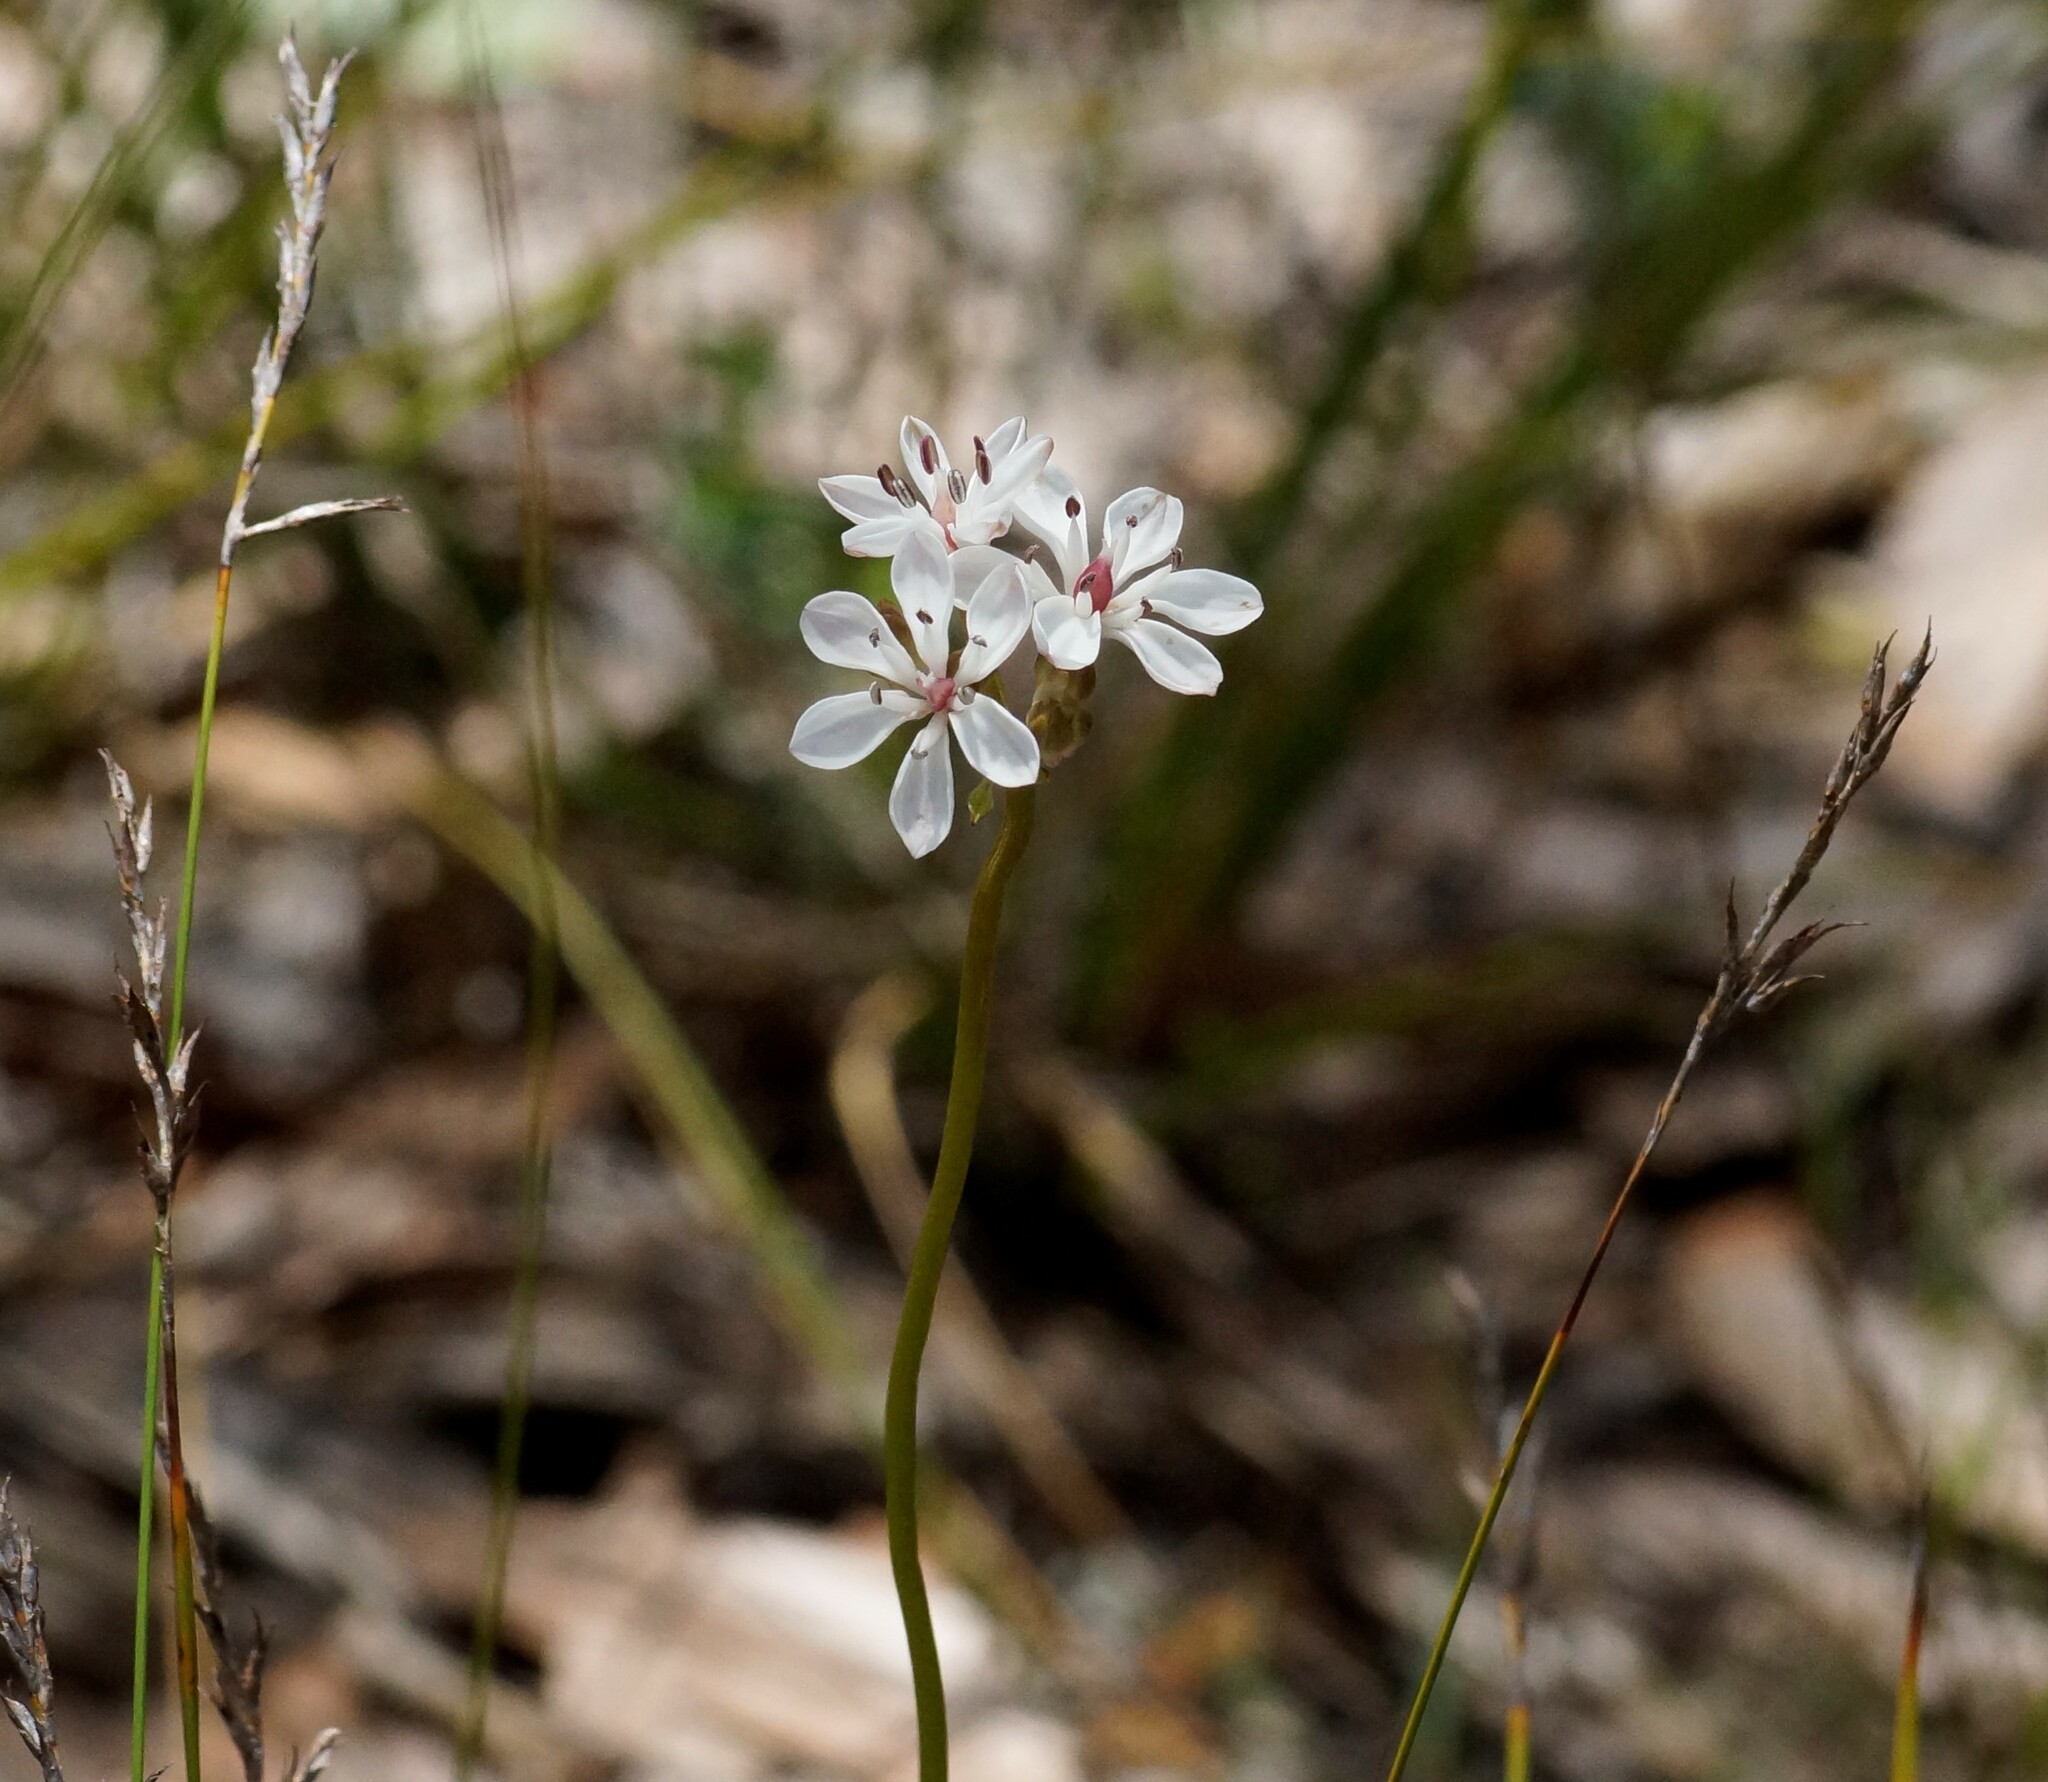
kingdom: Plantae
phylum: Tracheophyta
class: Liliopsida
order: Liliales
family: Colchicaceae
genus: Burchardia
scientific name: Burchardia umbellata
